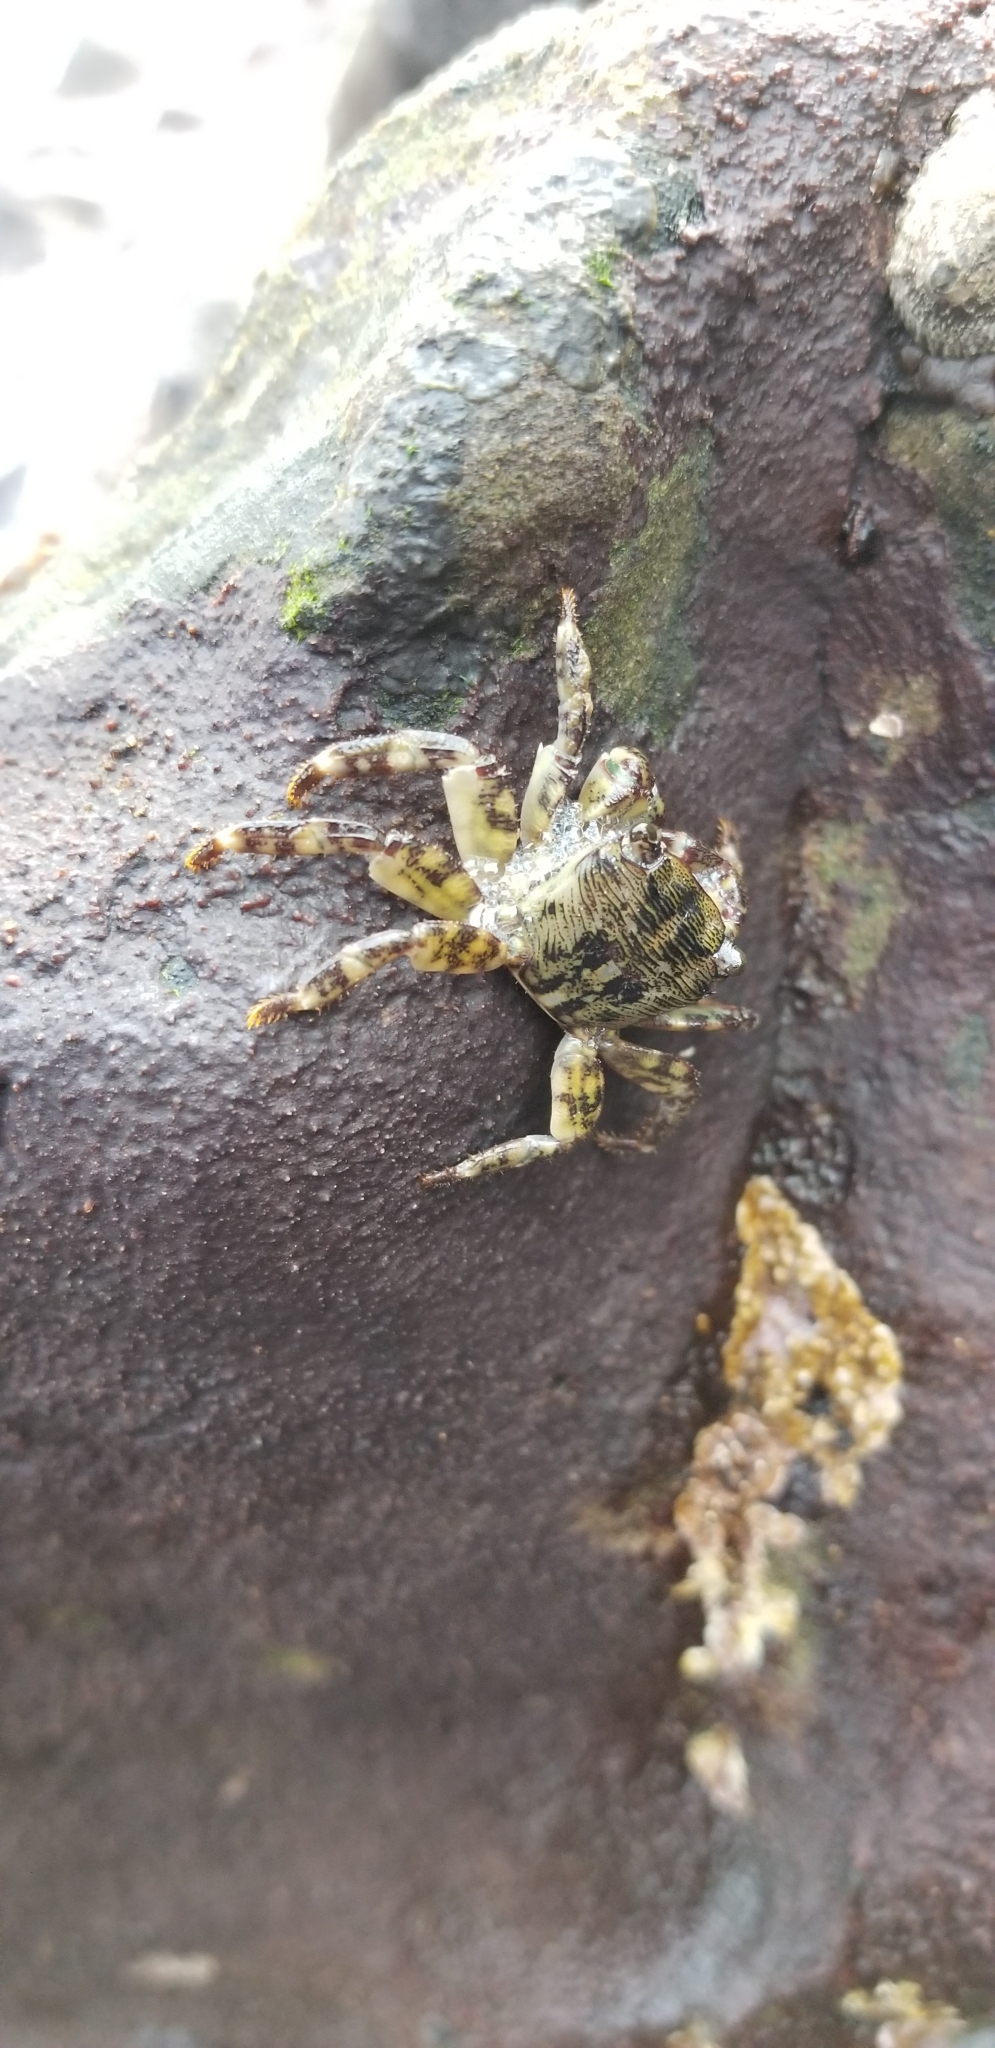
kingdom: Animalia
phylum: Arthropoda
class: Malacostraca
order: Decapoda
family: Grapsidae
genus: Pachygrapsus
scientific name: Pachygrapsus crassipes
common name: Striped shore crab
